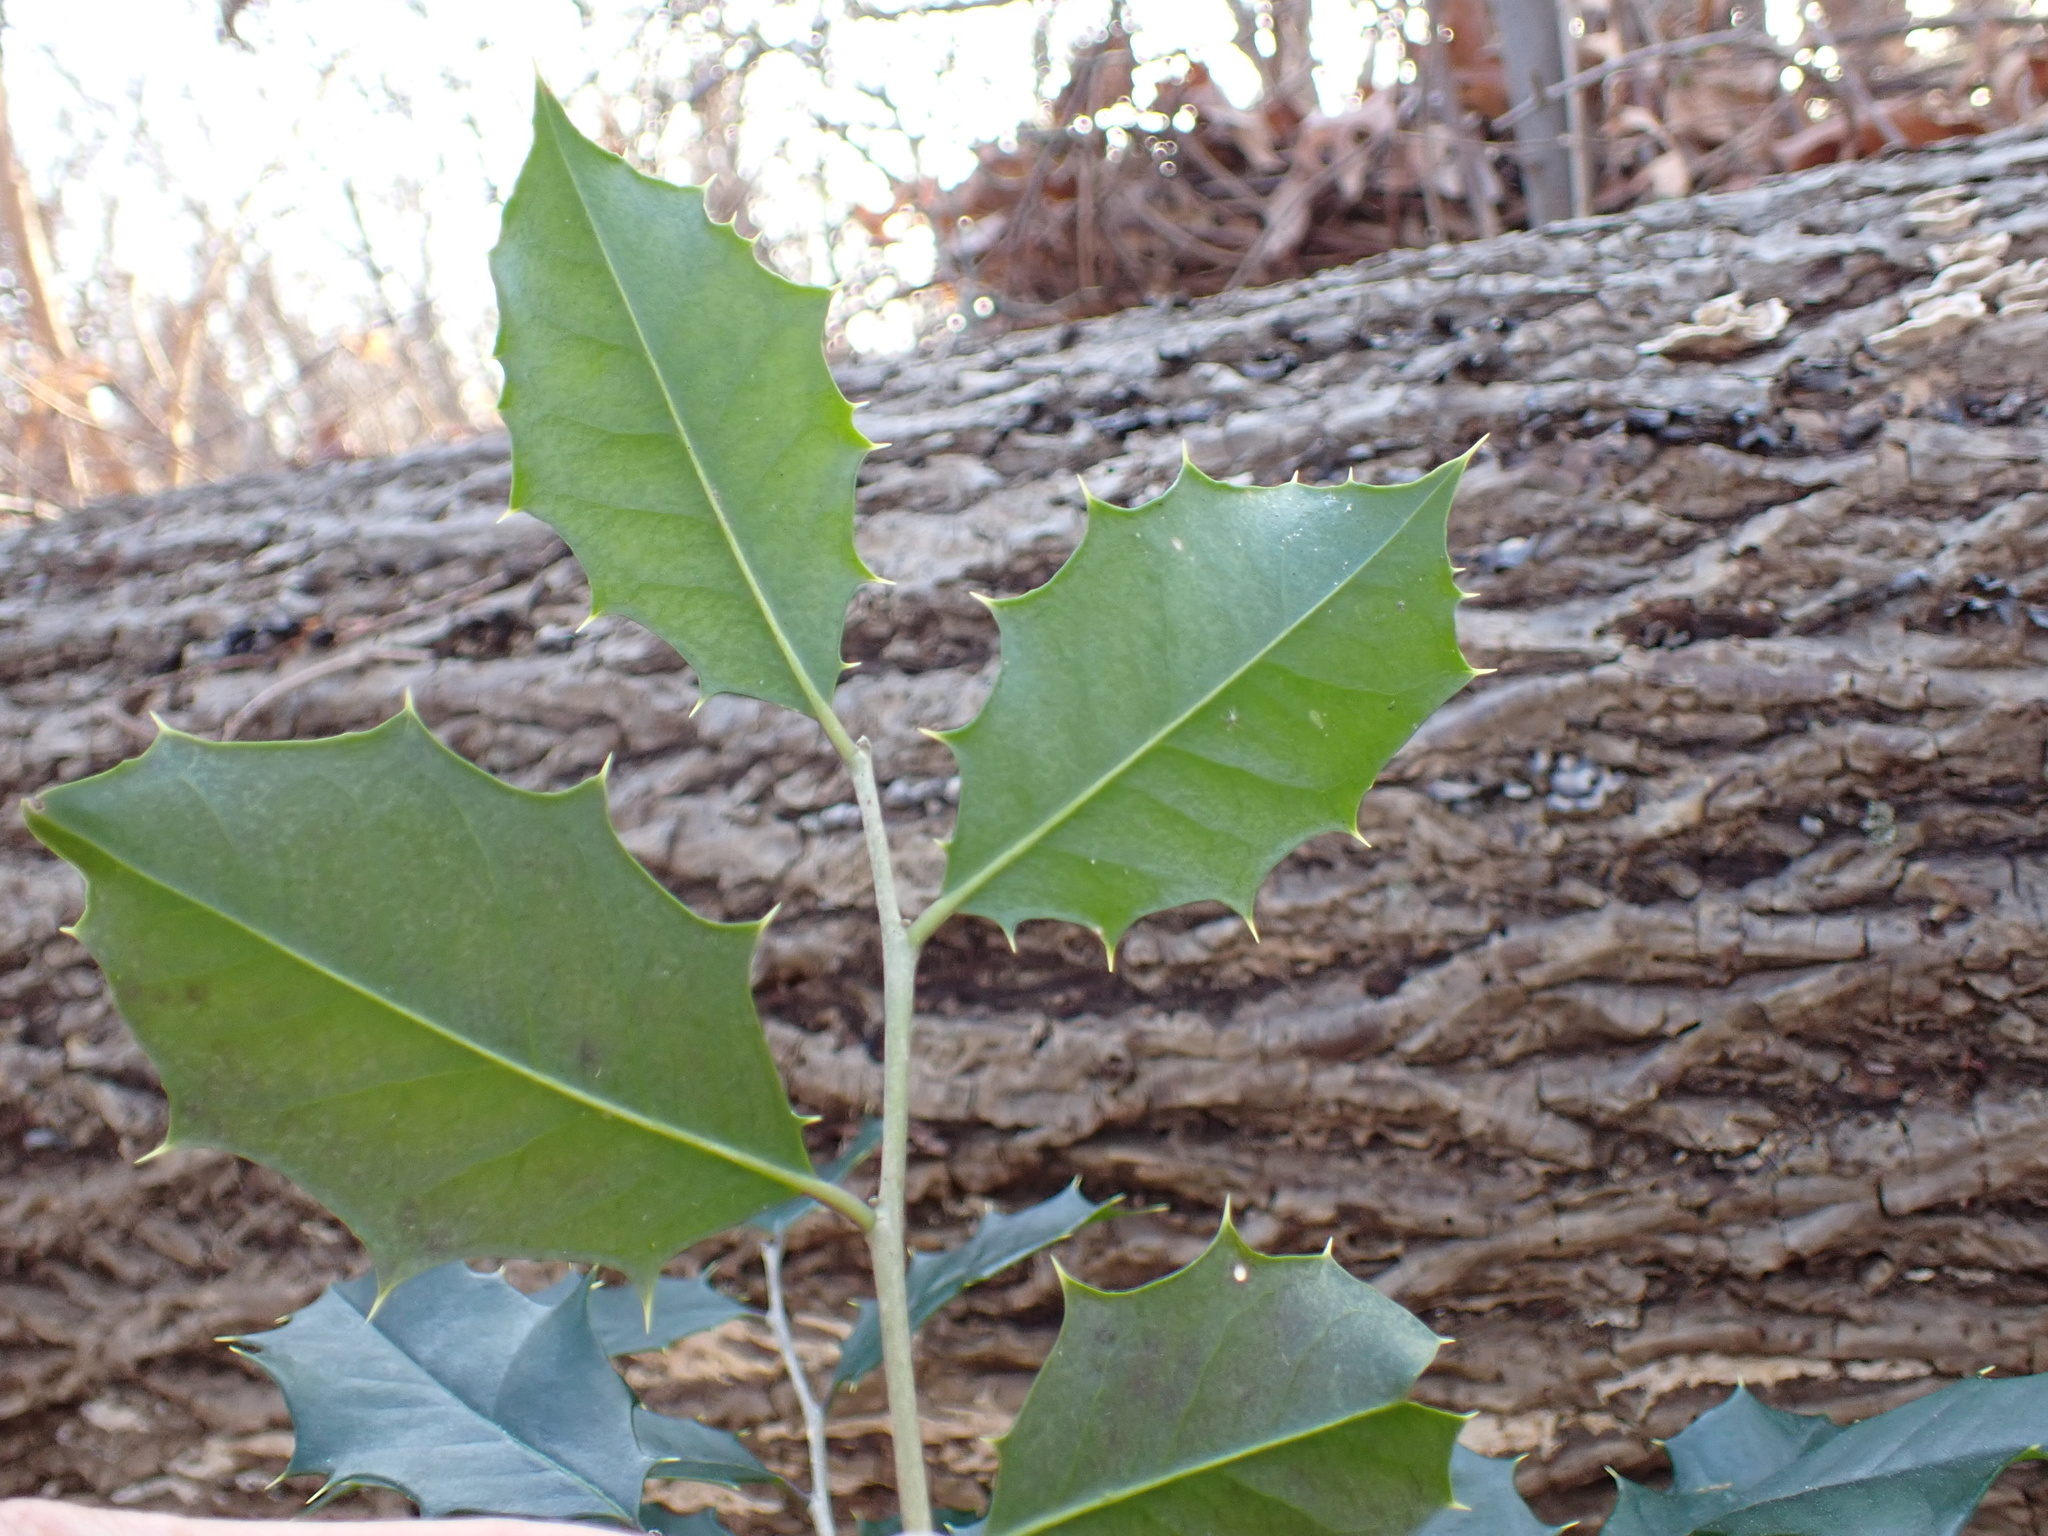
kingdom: Plantae
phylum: Tracheophyta
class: Magnoliopsida
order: Aquifoliales
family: Aquifoliaceae
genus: Ilex
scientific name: Ilex opaca
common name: American holly
